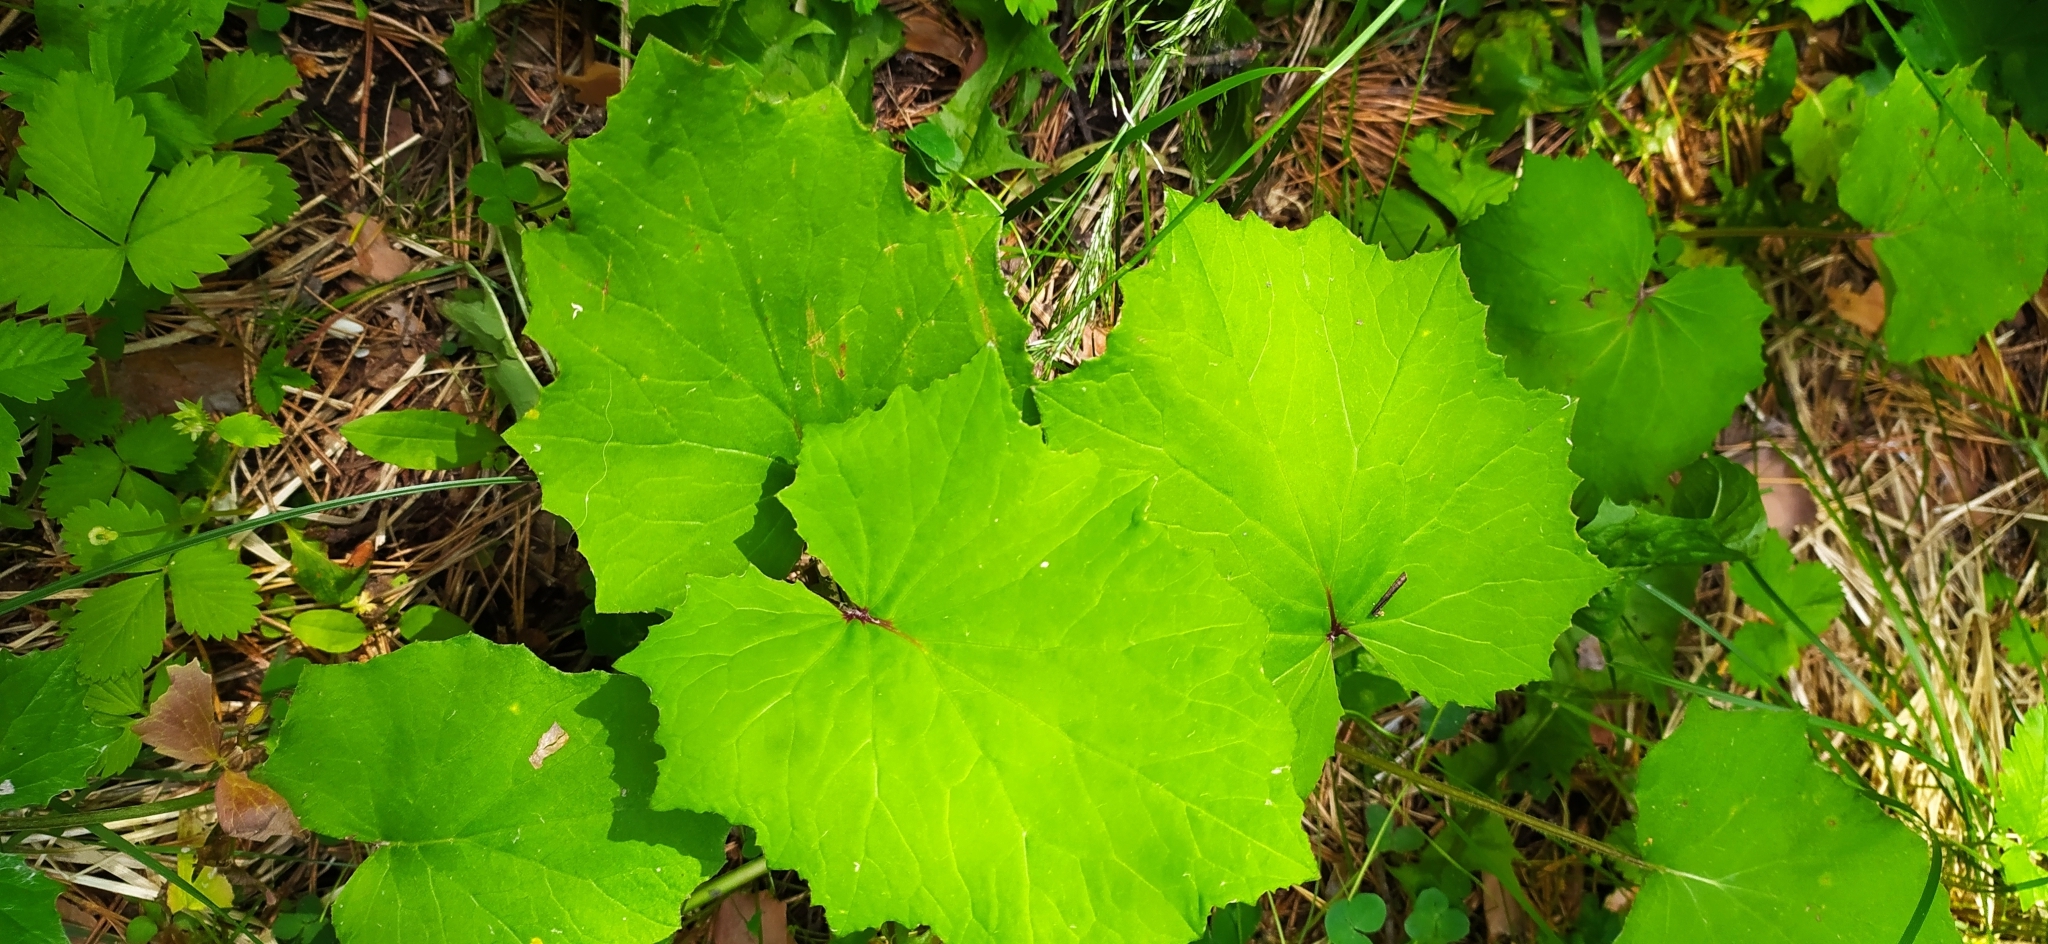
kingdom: Plantae
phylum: Tracheophyta
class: Magnoliopsida
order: Asterales
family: Asteraceae
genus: Tussilago
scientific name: Tussilago farfara
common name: Coltsfoot
